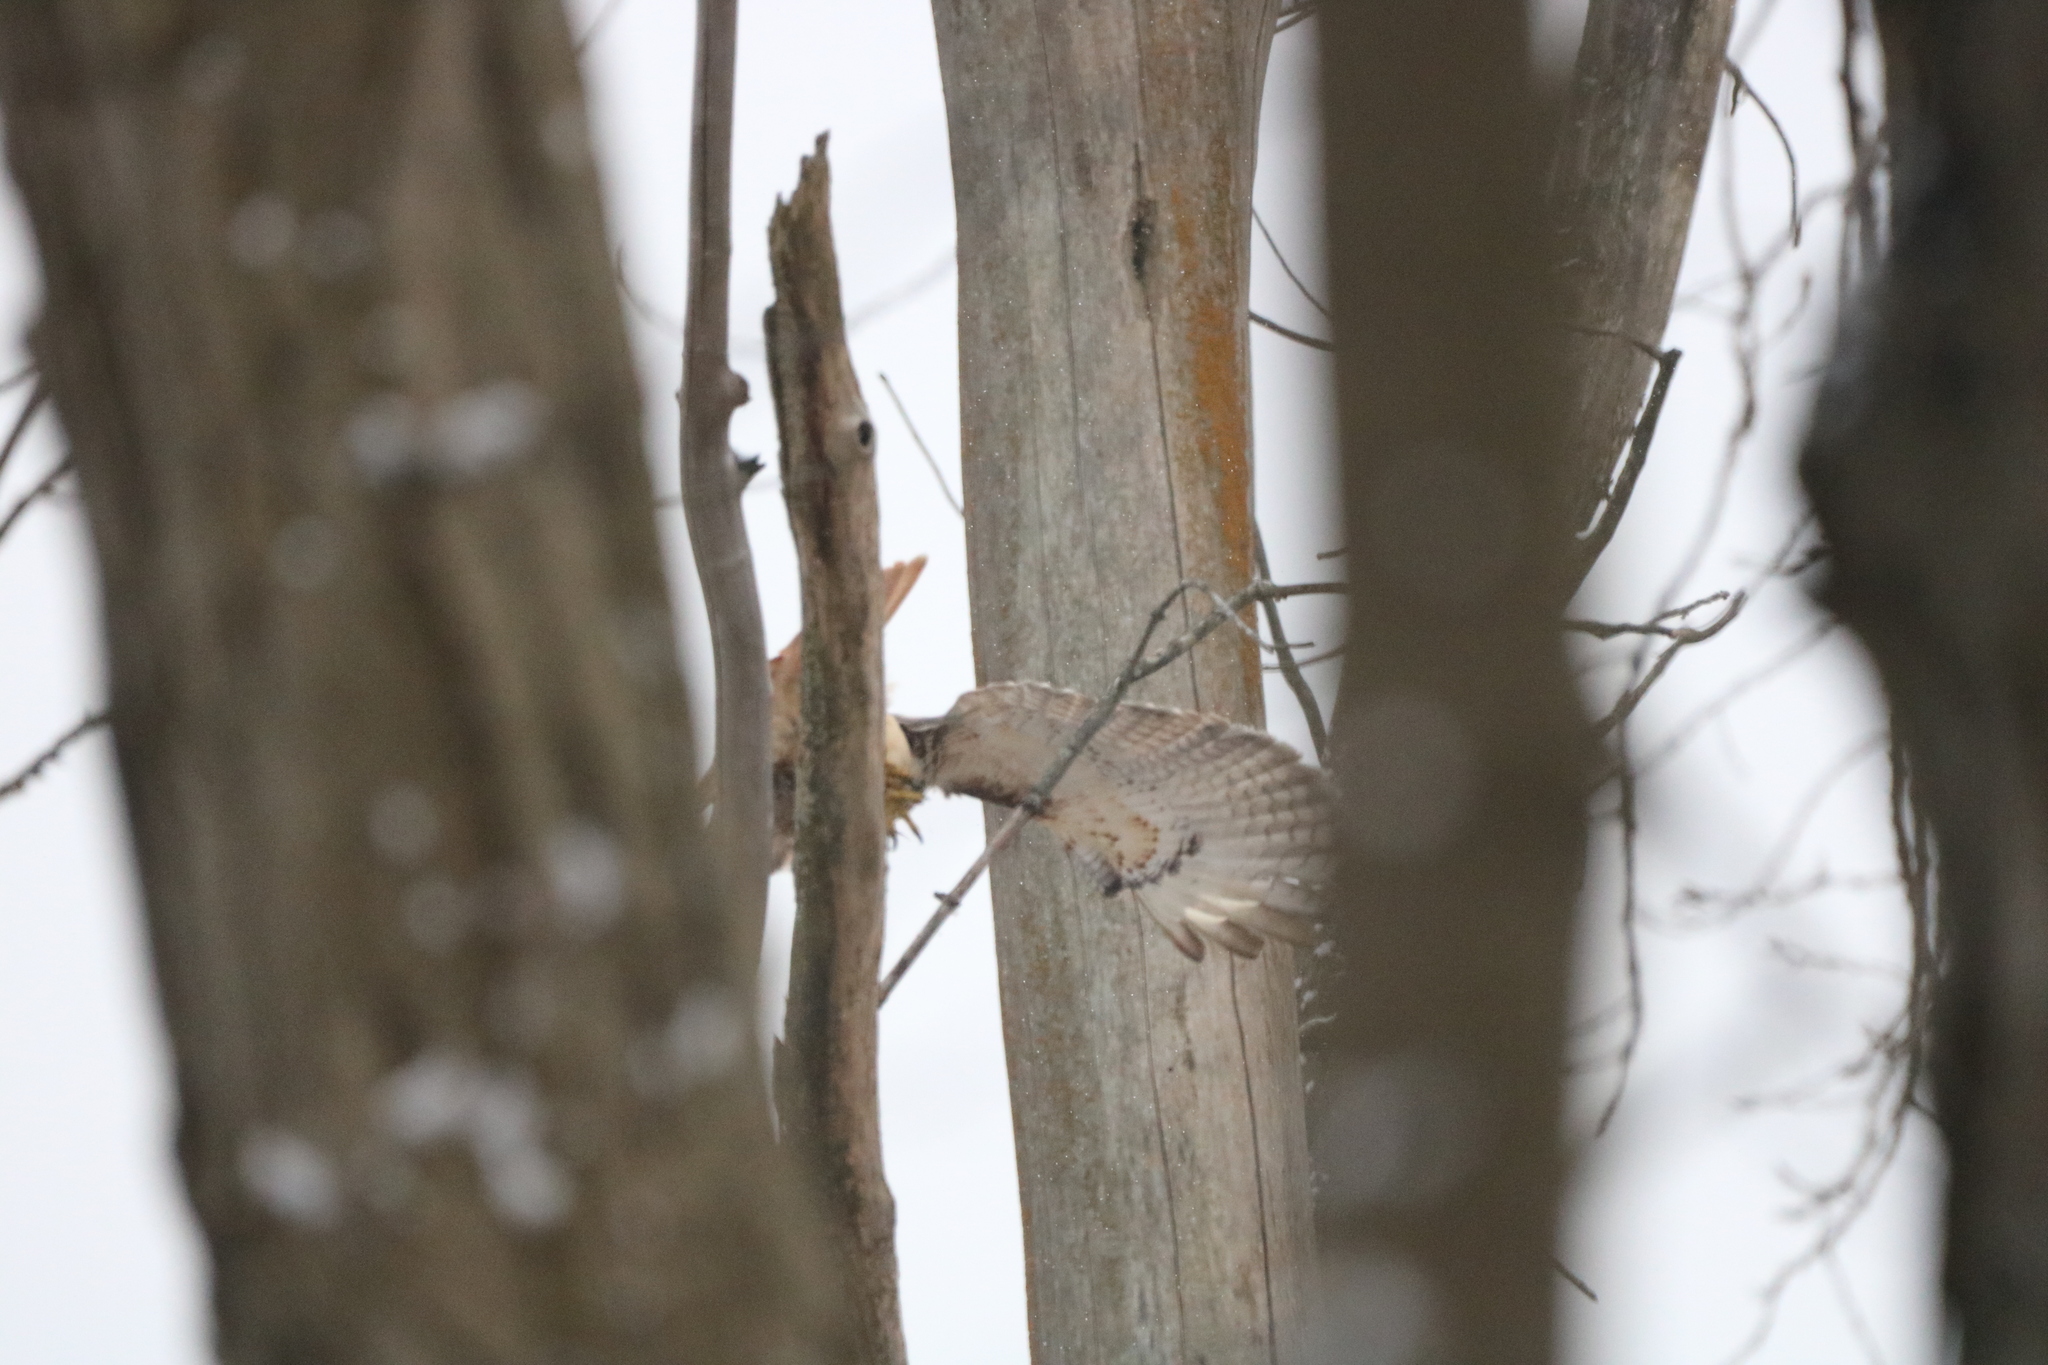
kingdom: Animalia
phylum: Chordata
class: Aves
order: Accipitriformes
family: Accipitridae
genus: Buteo
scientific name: Buteo jamaicensis
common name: Red-tailed hawk
